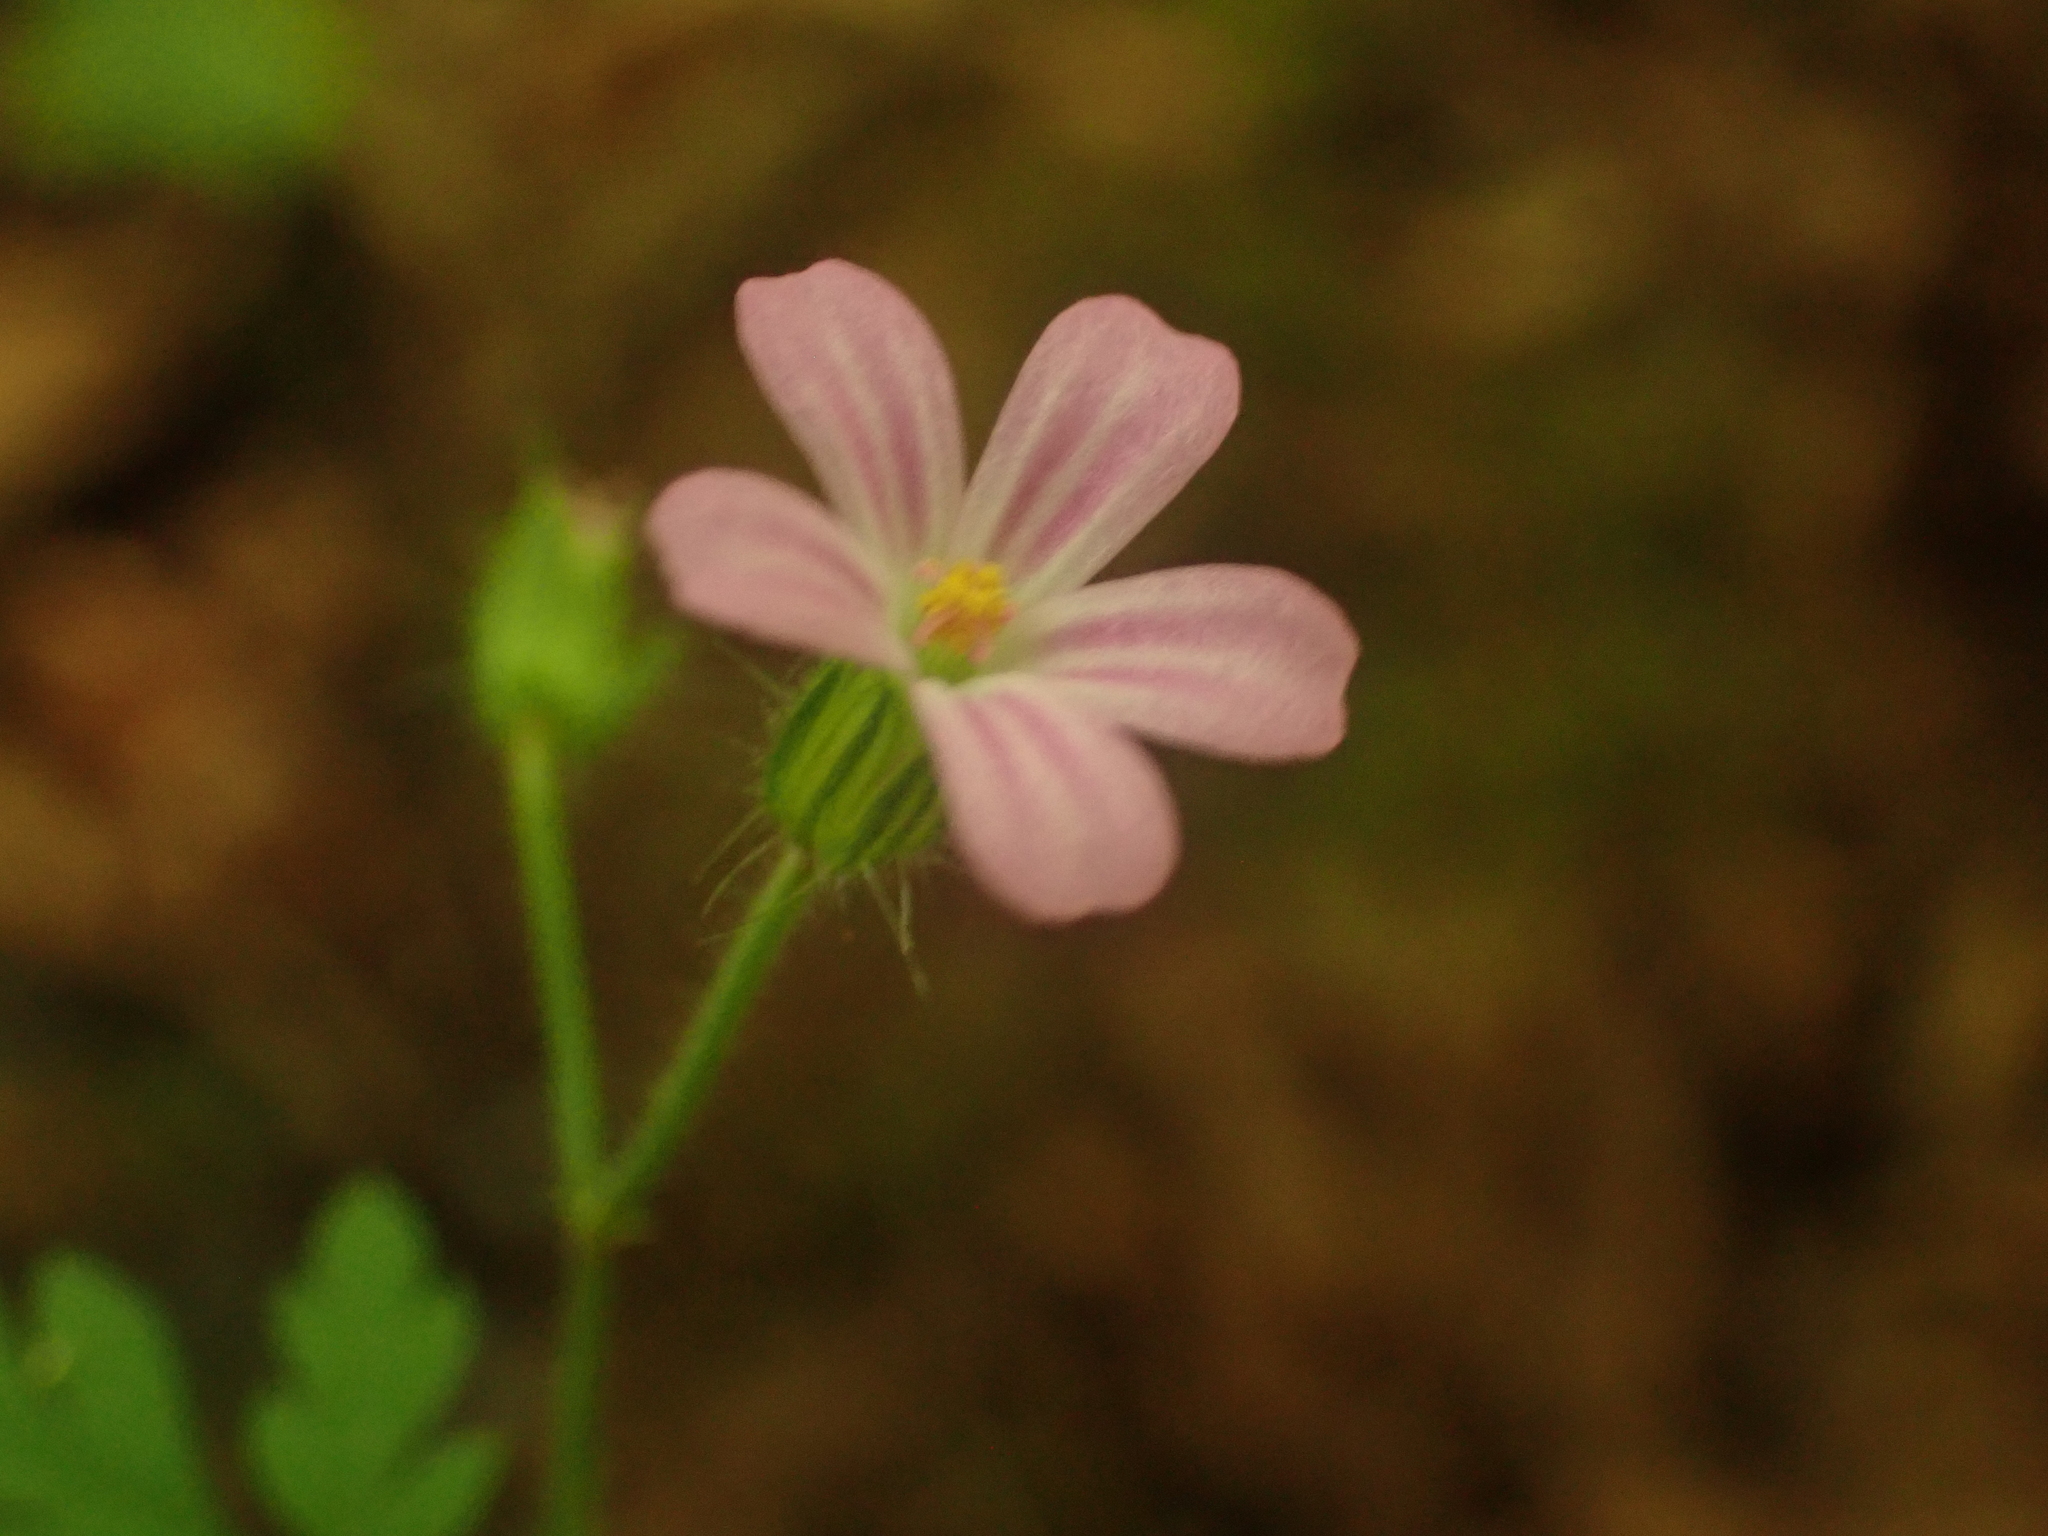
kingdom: Plantae
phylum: Tracheophyta
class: Magnoliopsida
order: Geraniales
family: Geraniaceae
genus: Geranium
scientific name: Geranium robertianum
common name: Herb-robert
